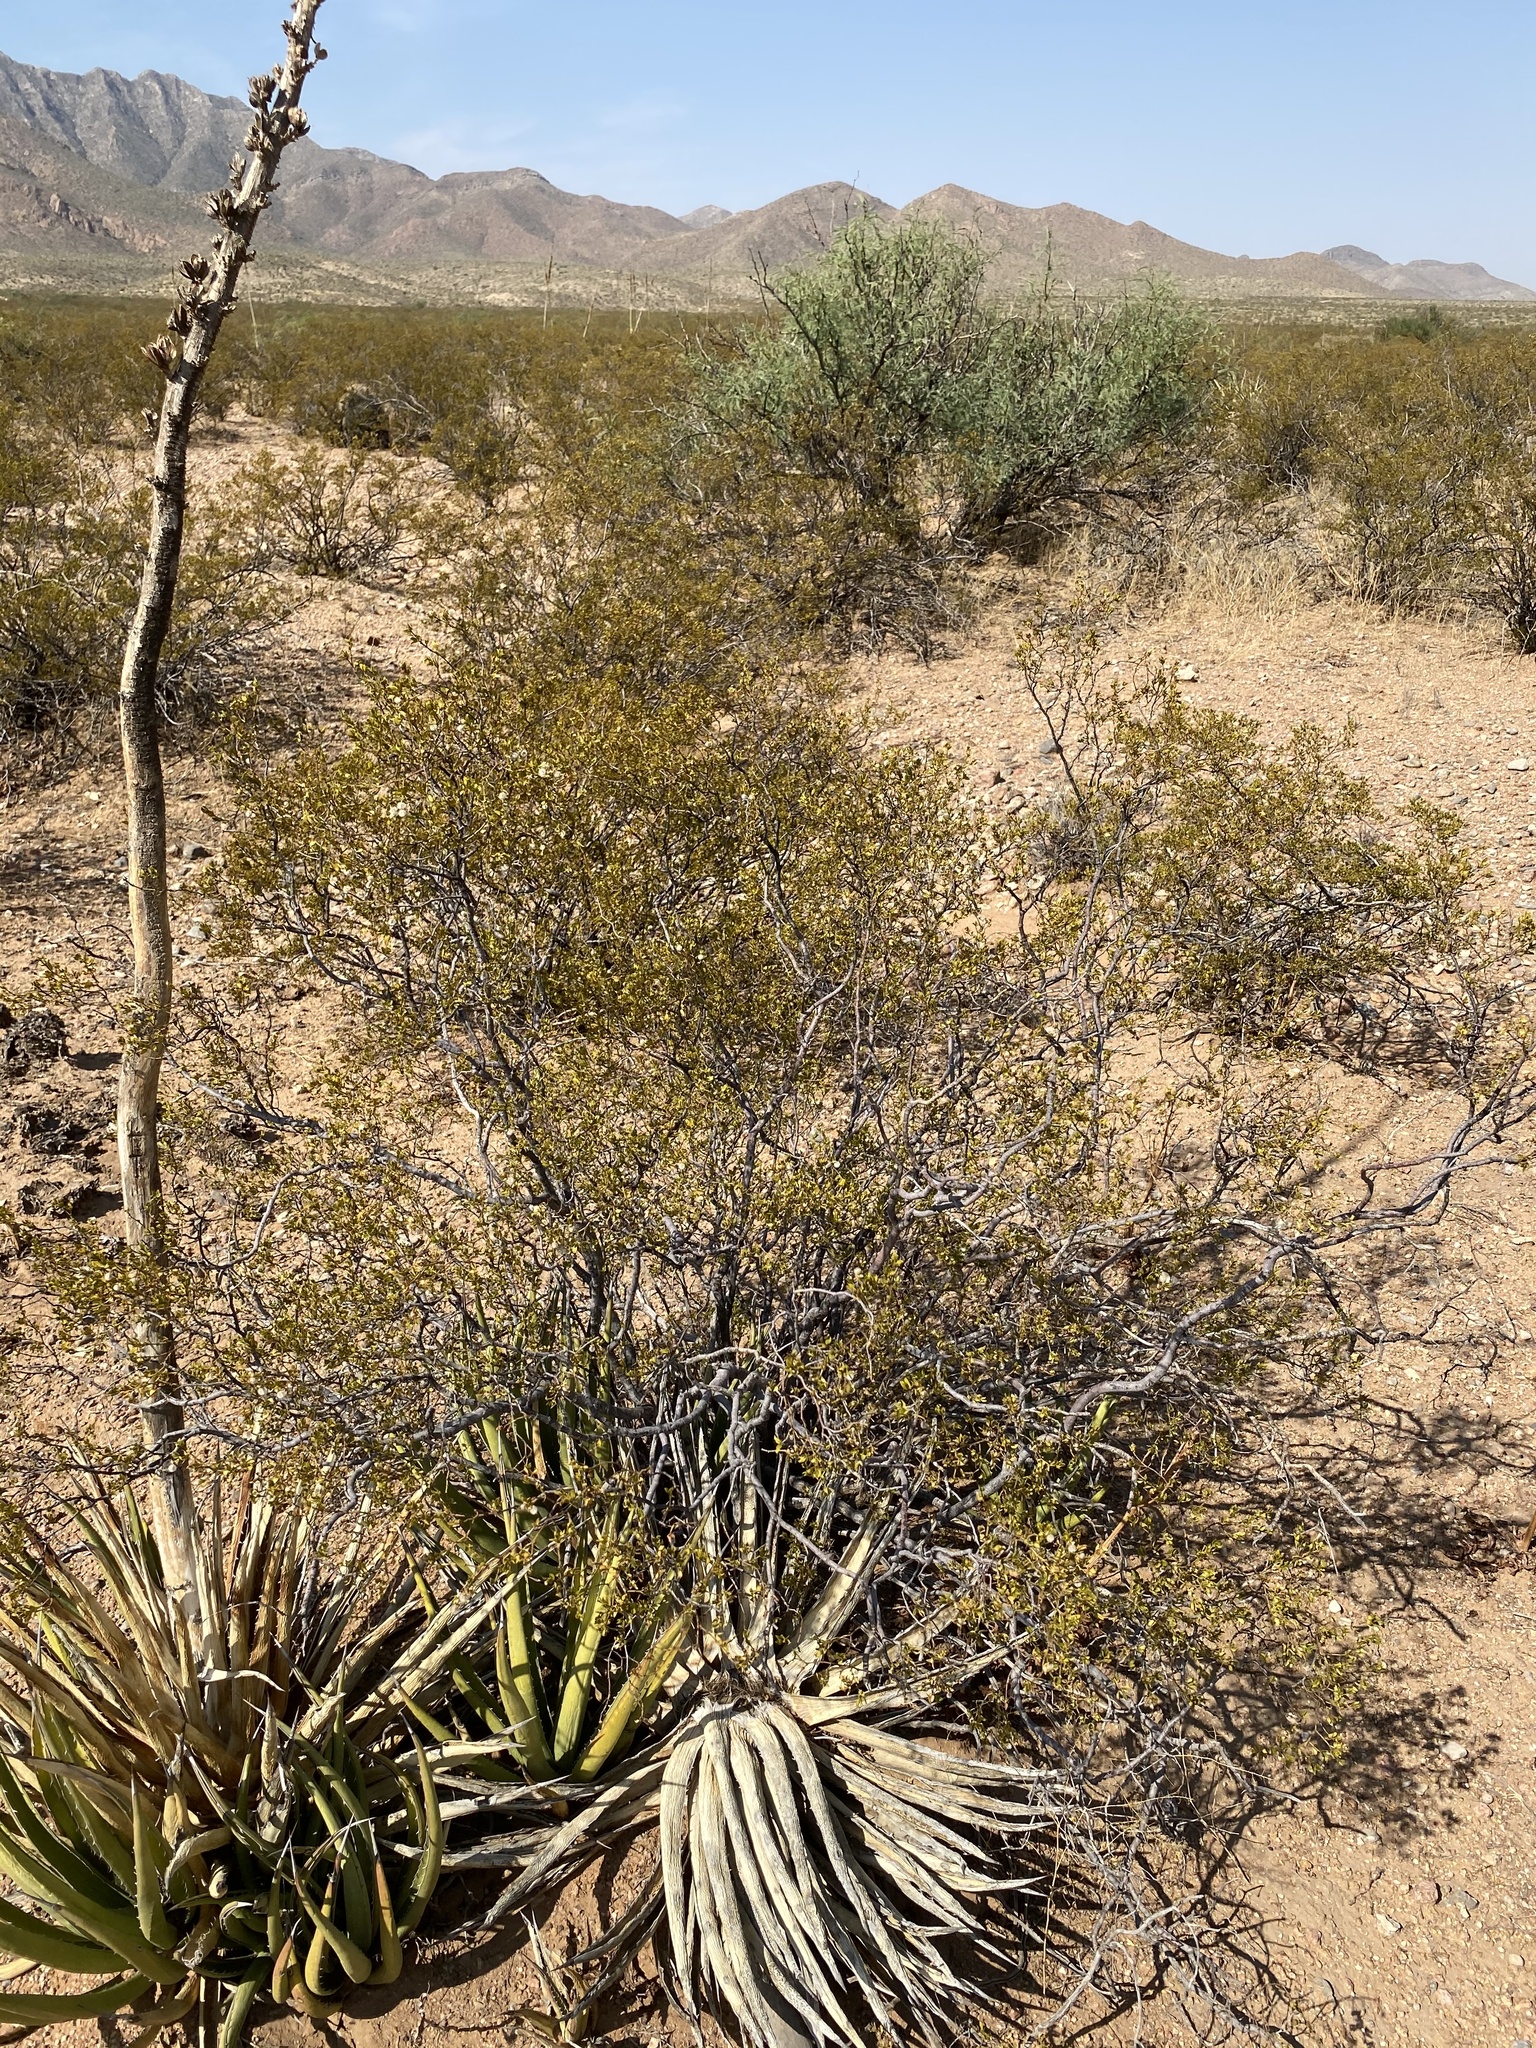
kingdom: Plantae
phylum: Tracheophyta
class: Magnoliopsida
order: Zygophyllales
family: Zygophyllaceae
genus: Larrea
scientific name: Larrea tridentata
